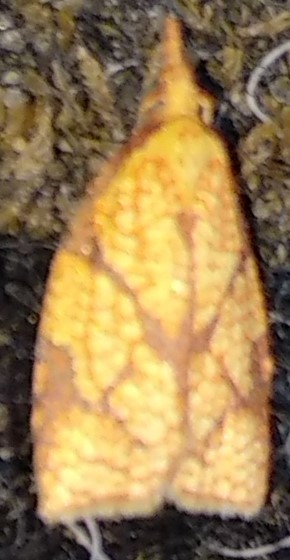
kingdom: Animalia
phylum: Arthropoda
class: Insecta
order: Lepidoptera
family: Tortricidae
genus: Cenopis
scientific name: Cenopis reticulatana
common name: Reticulated fruitworm moth
